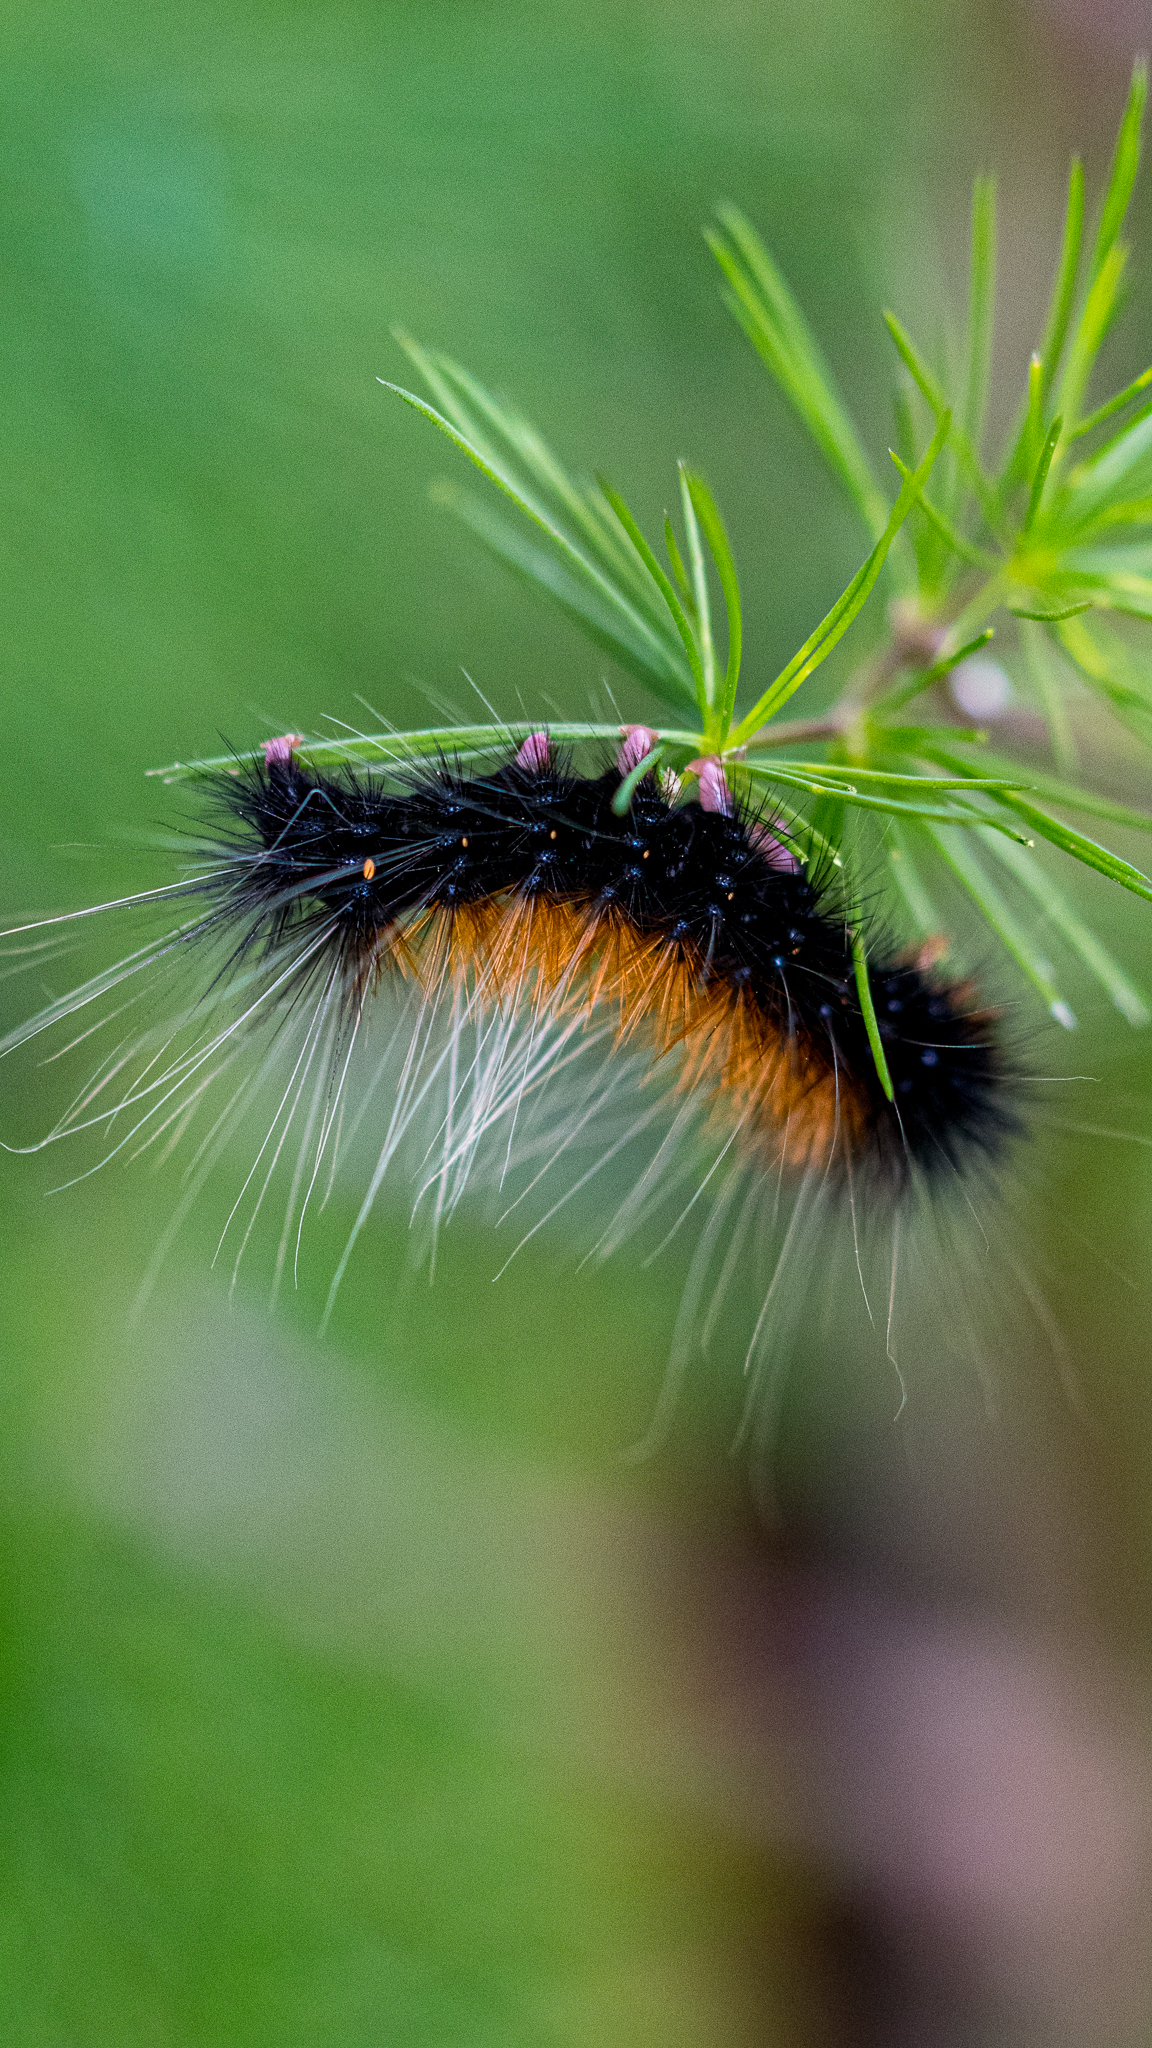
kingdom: Animalia
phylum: Arthropoda
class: Insecta
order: Lepidoptera
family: Erebidae
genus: Rhodogastria
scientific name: Rhodogastria amasis
